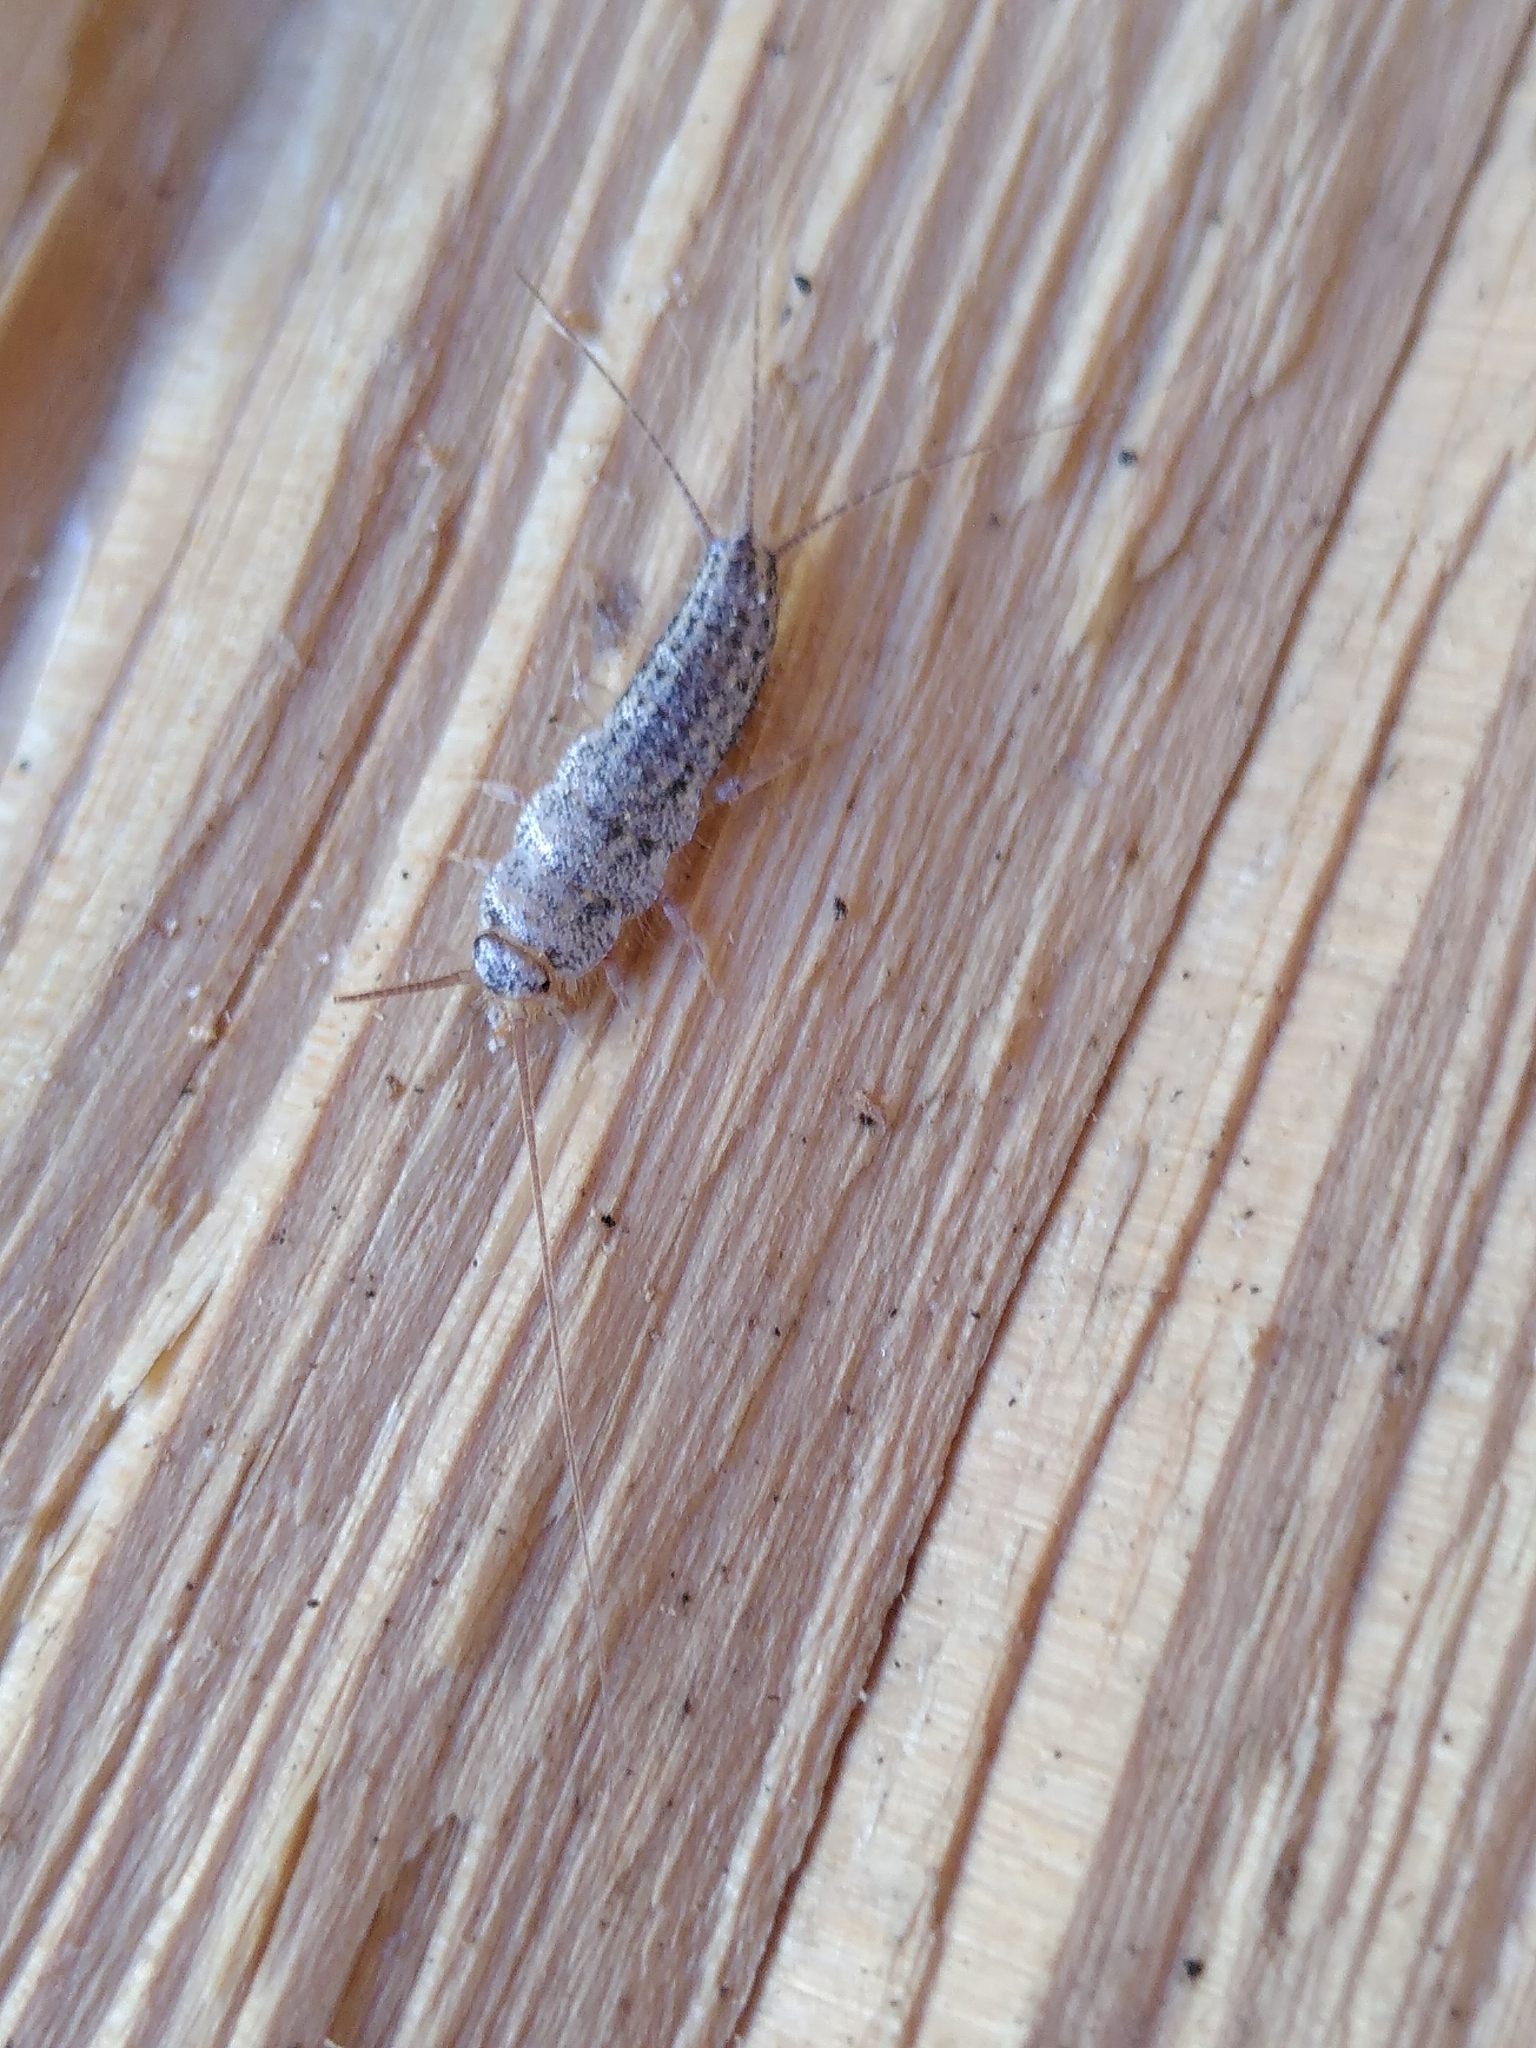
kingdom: Animalia
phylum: Arthropoda
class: Insecta
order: Zygentoma
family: Lepismatidae
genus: Ctenolepisma
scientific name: Ctenolepisma lineata
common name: Four-lined silverfish
